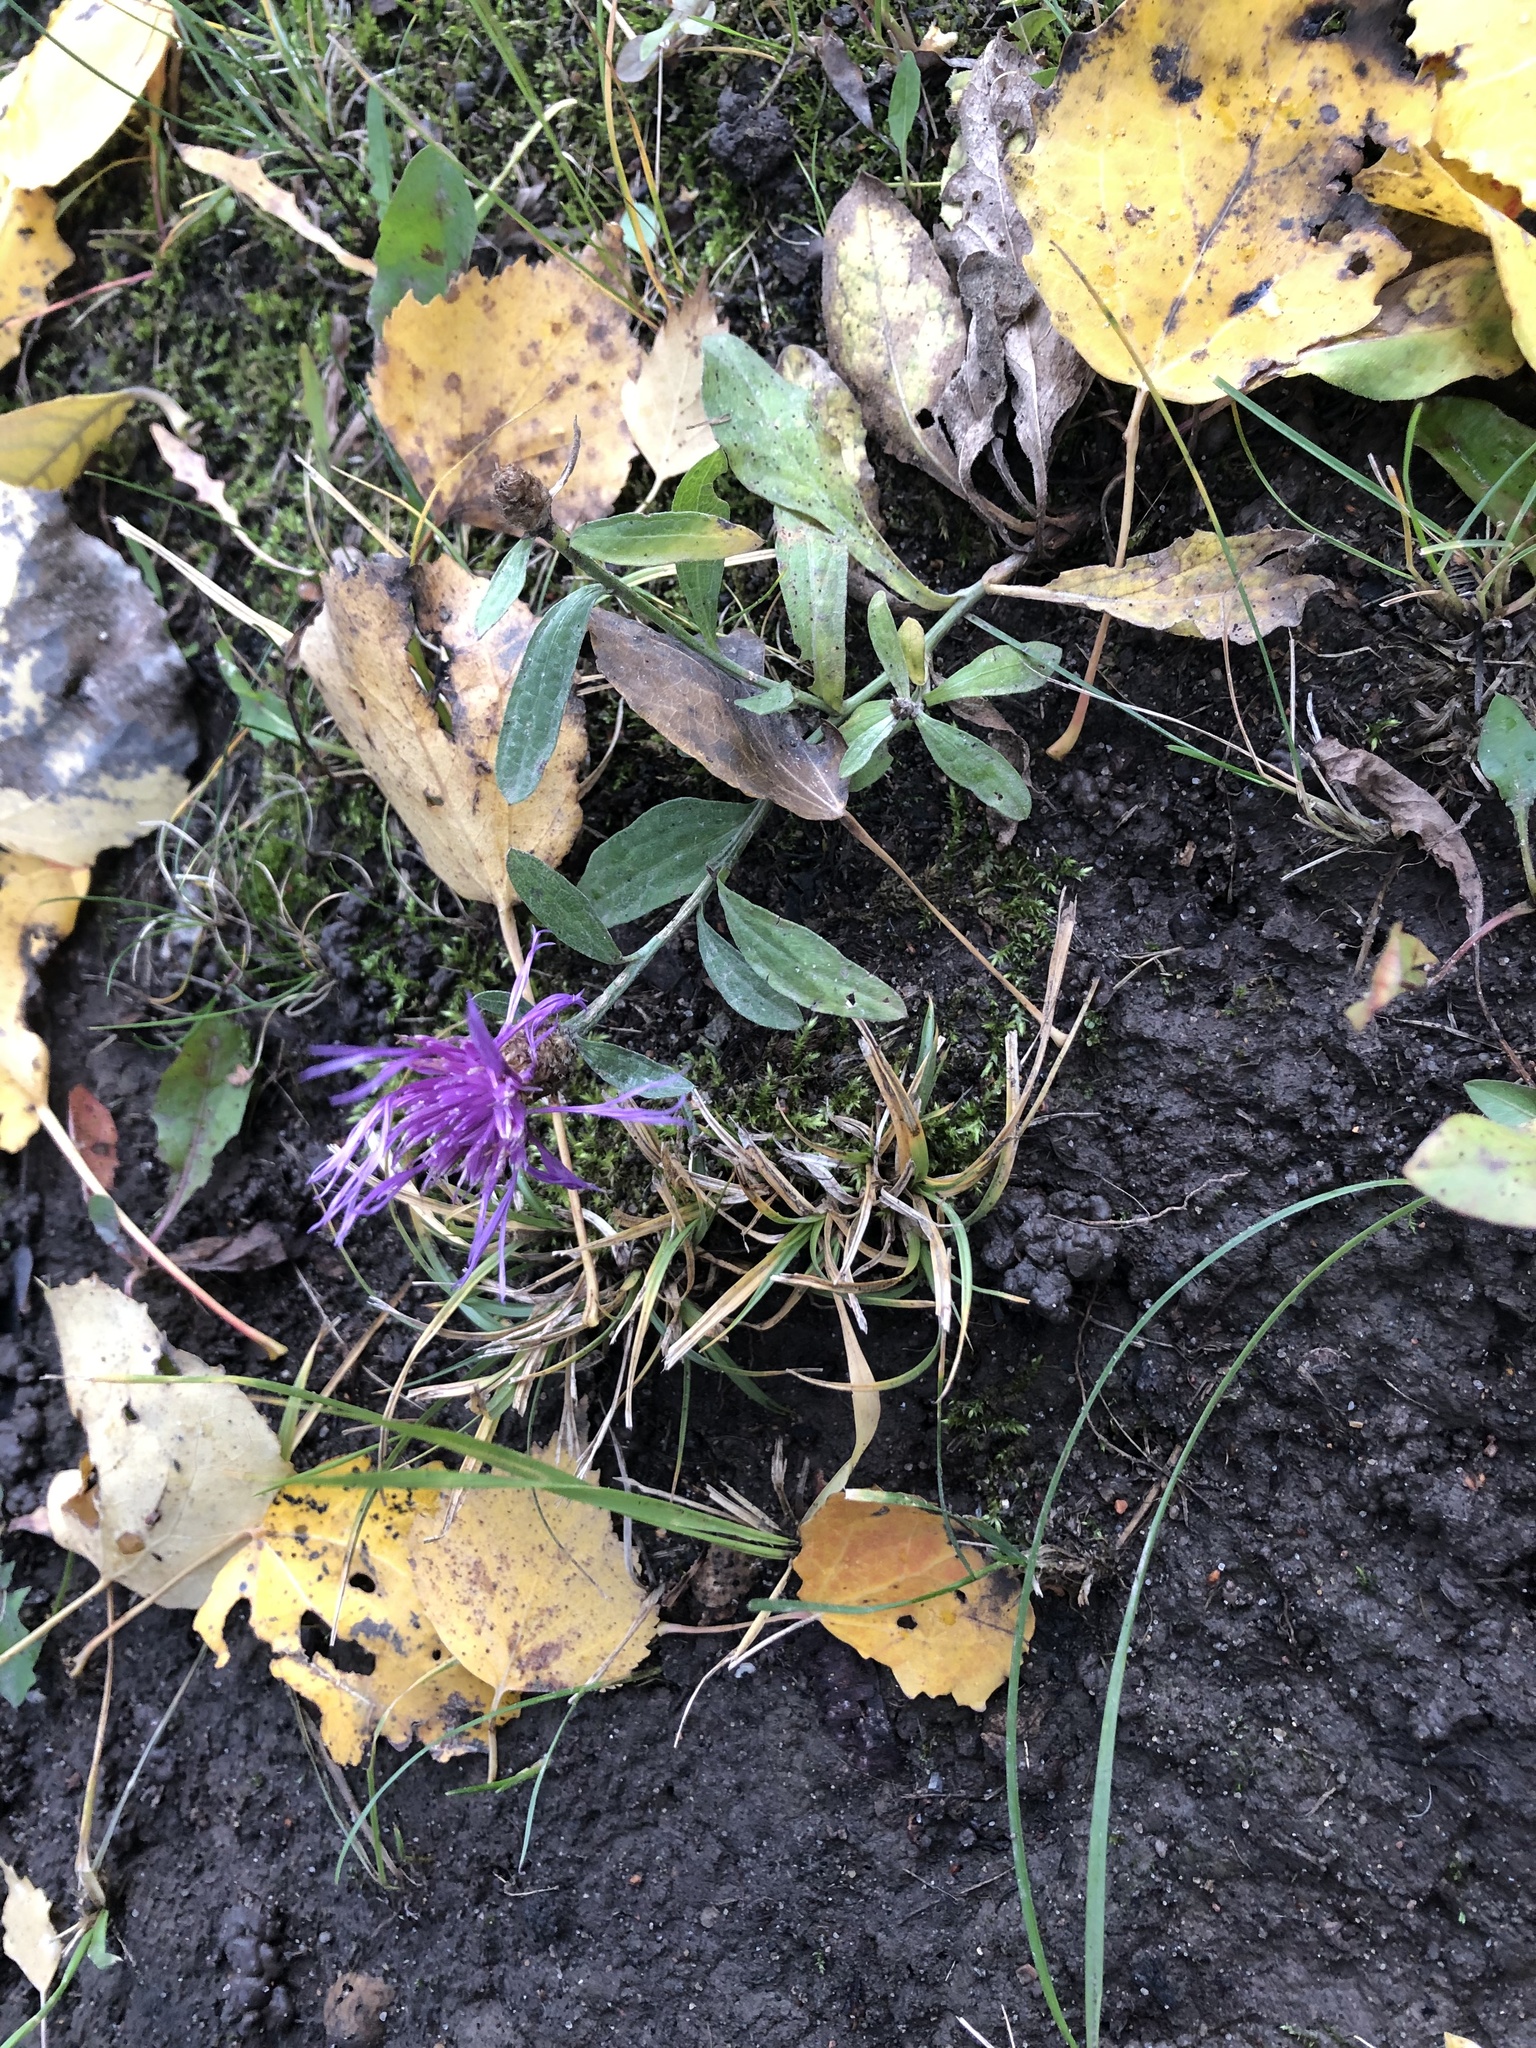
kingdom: Plantae
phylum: Tracheophyta
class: Magnoliopsida
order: Asterales
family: Asteraceae
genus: Centaurea
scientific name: Centaurea jacea
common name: Brown knapweed
